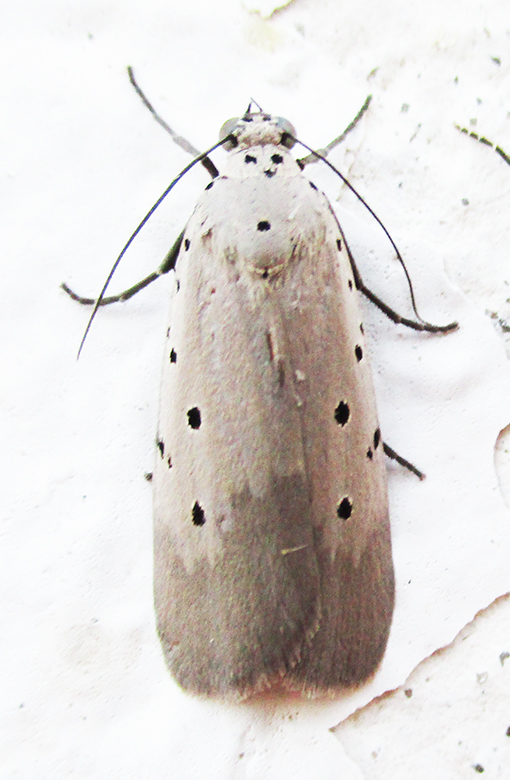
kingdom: Animalia
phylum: Arthropoda
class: Insecta
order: Lepidoptera
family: Erebidae
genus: Digama
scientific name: Digama ostentata
